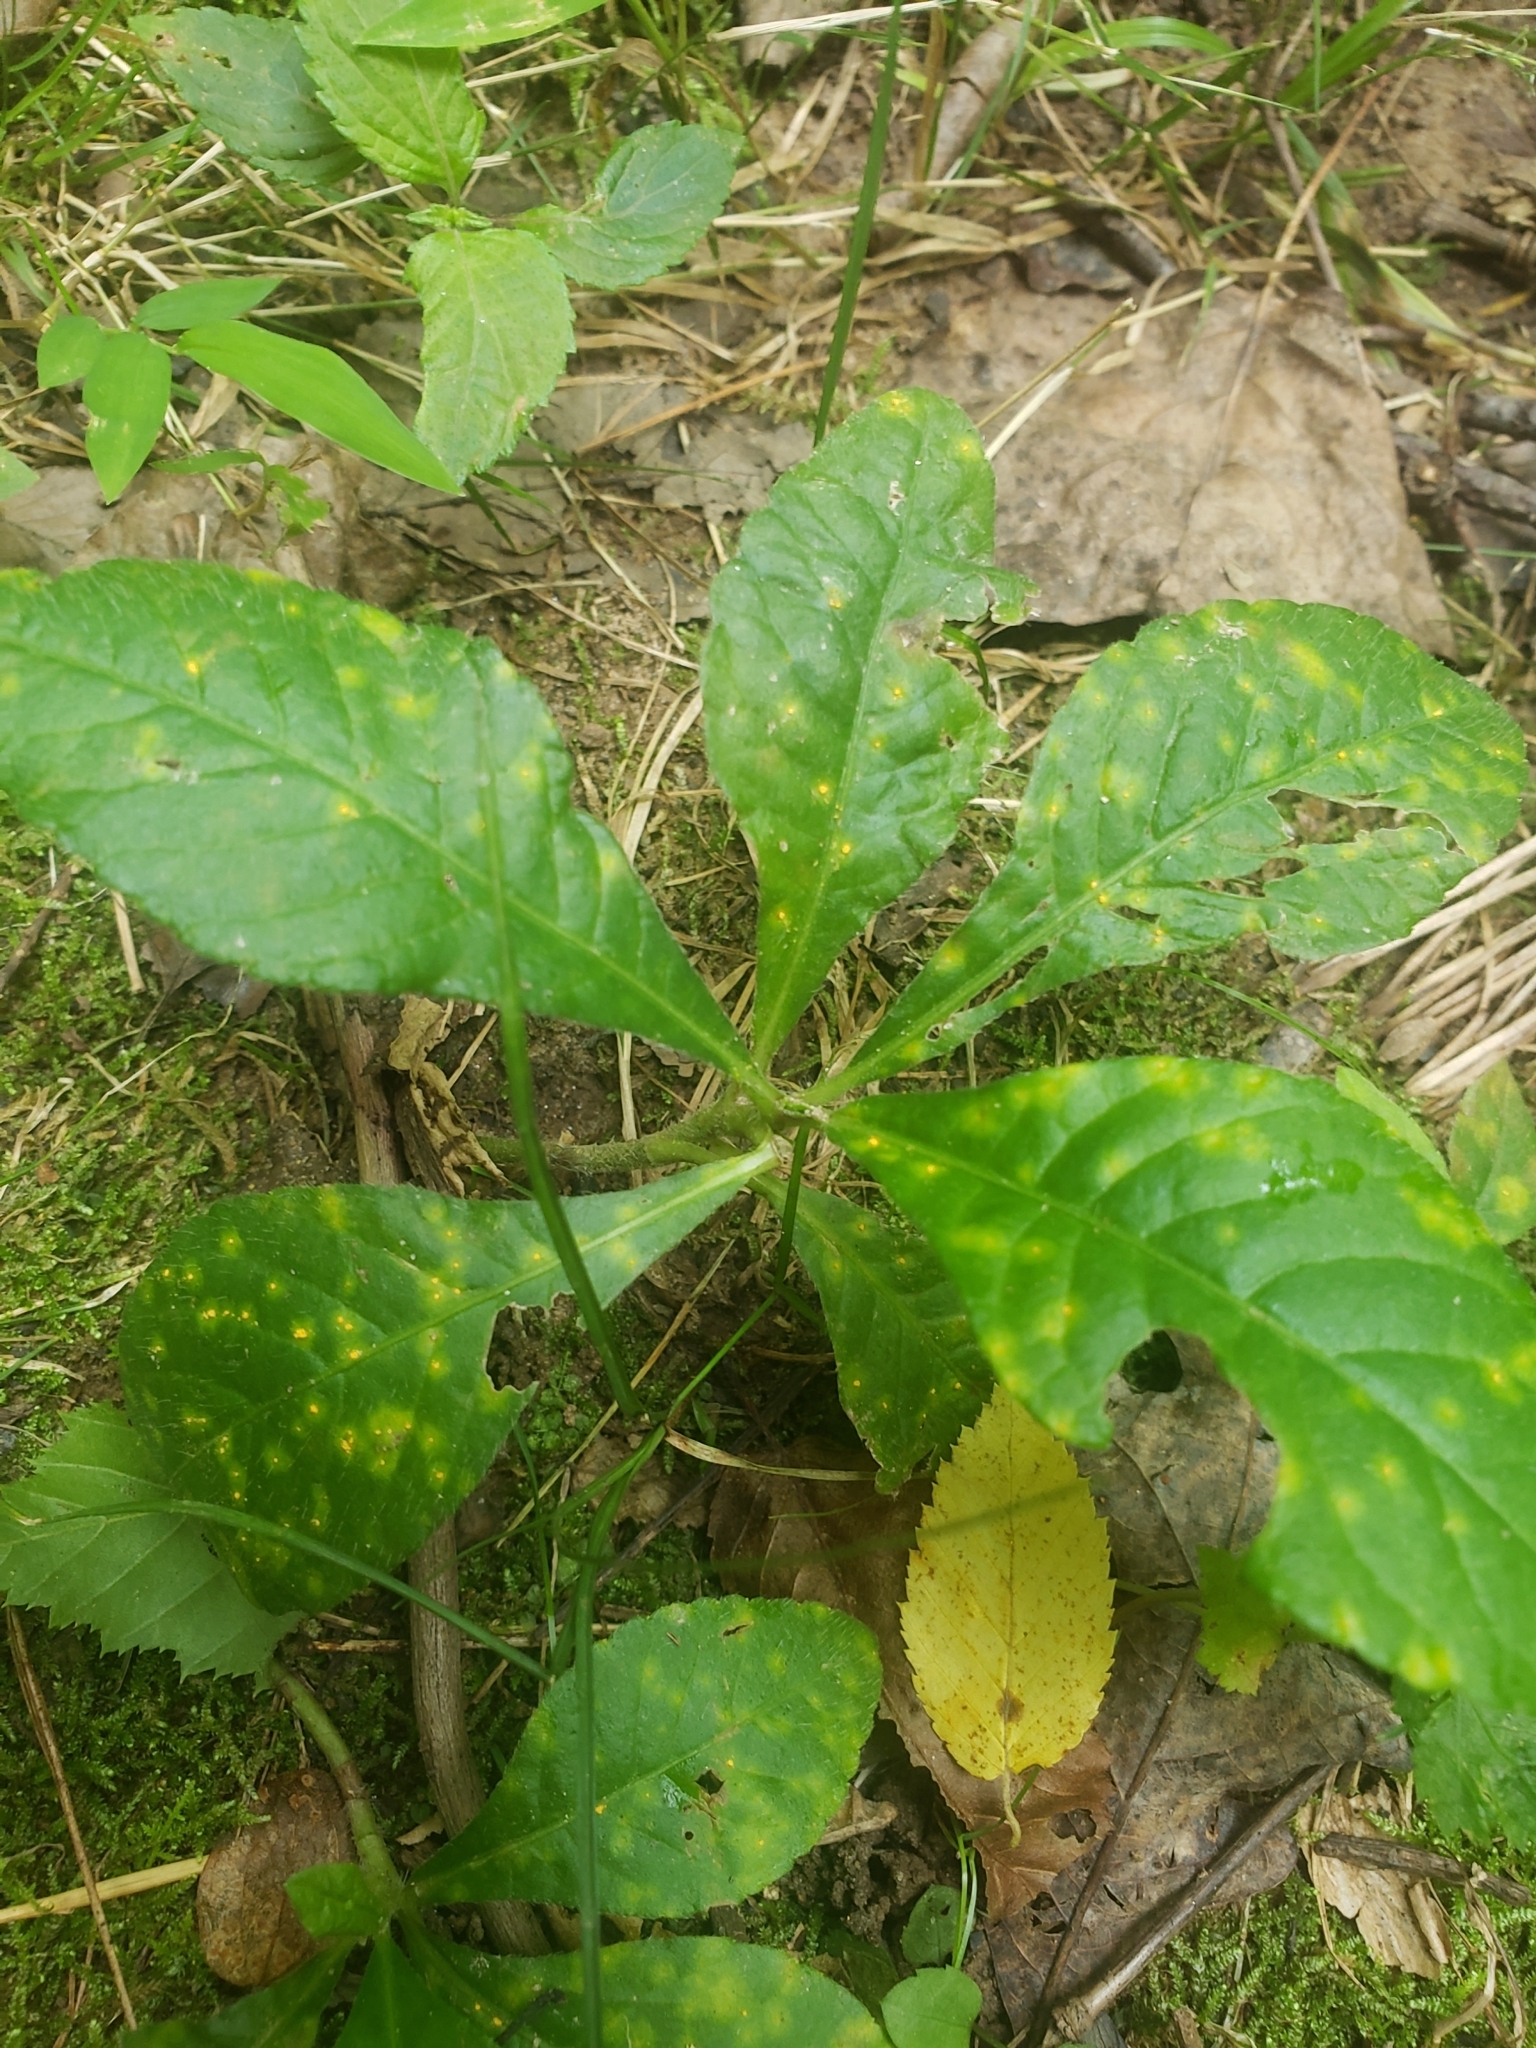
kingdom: Fungi
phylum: Basidiomycota
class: Pucciniomycetes
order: Pucciniales
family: Coleosporiaceae
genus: Coleosporium
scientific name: Coleosporium elephantopodis
